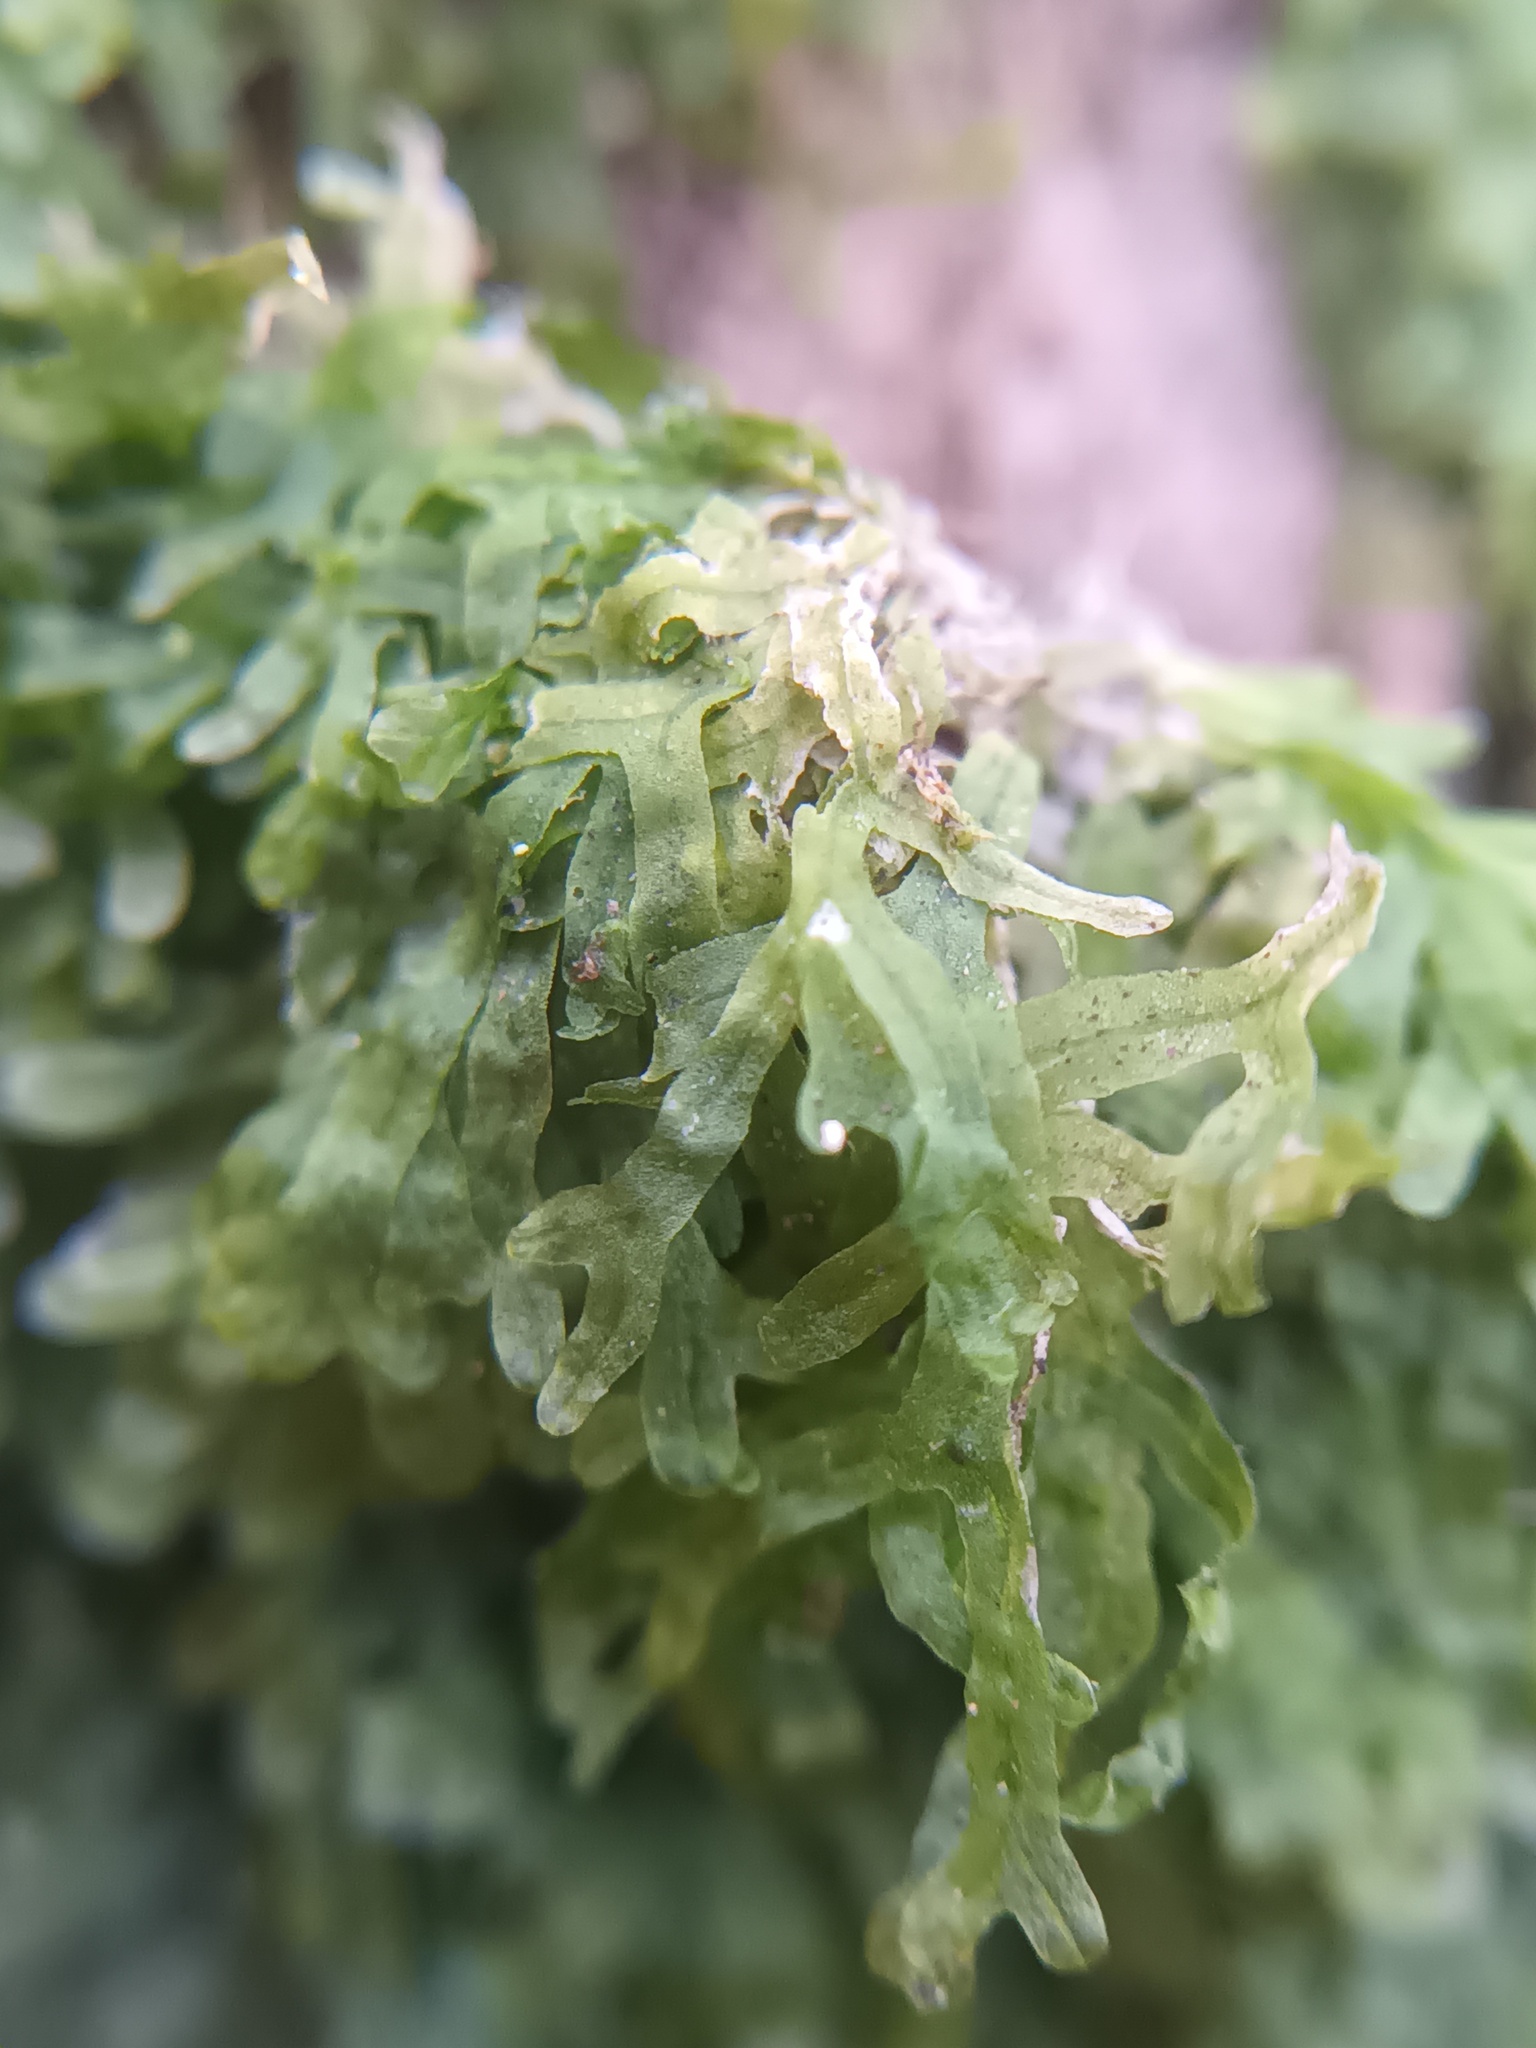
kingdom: Plantae
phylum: Marchantiophyta
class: Jungermanniopsida
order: Metzgeriales
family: Metzgeriaceae
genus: Metzgeria
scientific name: Metzgeria furcata
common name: Forked veilwort
